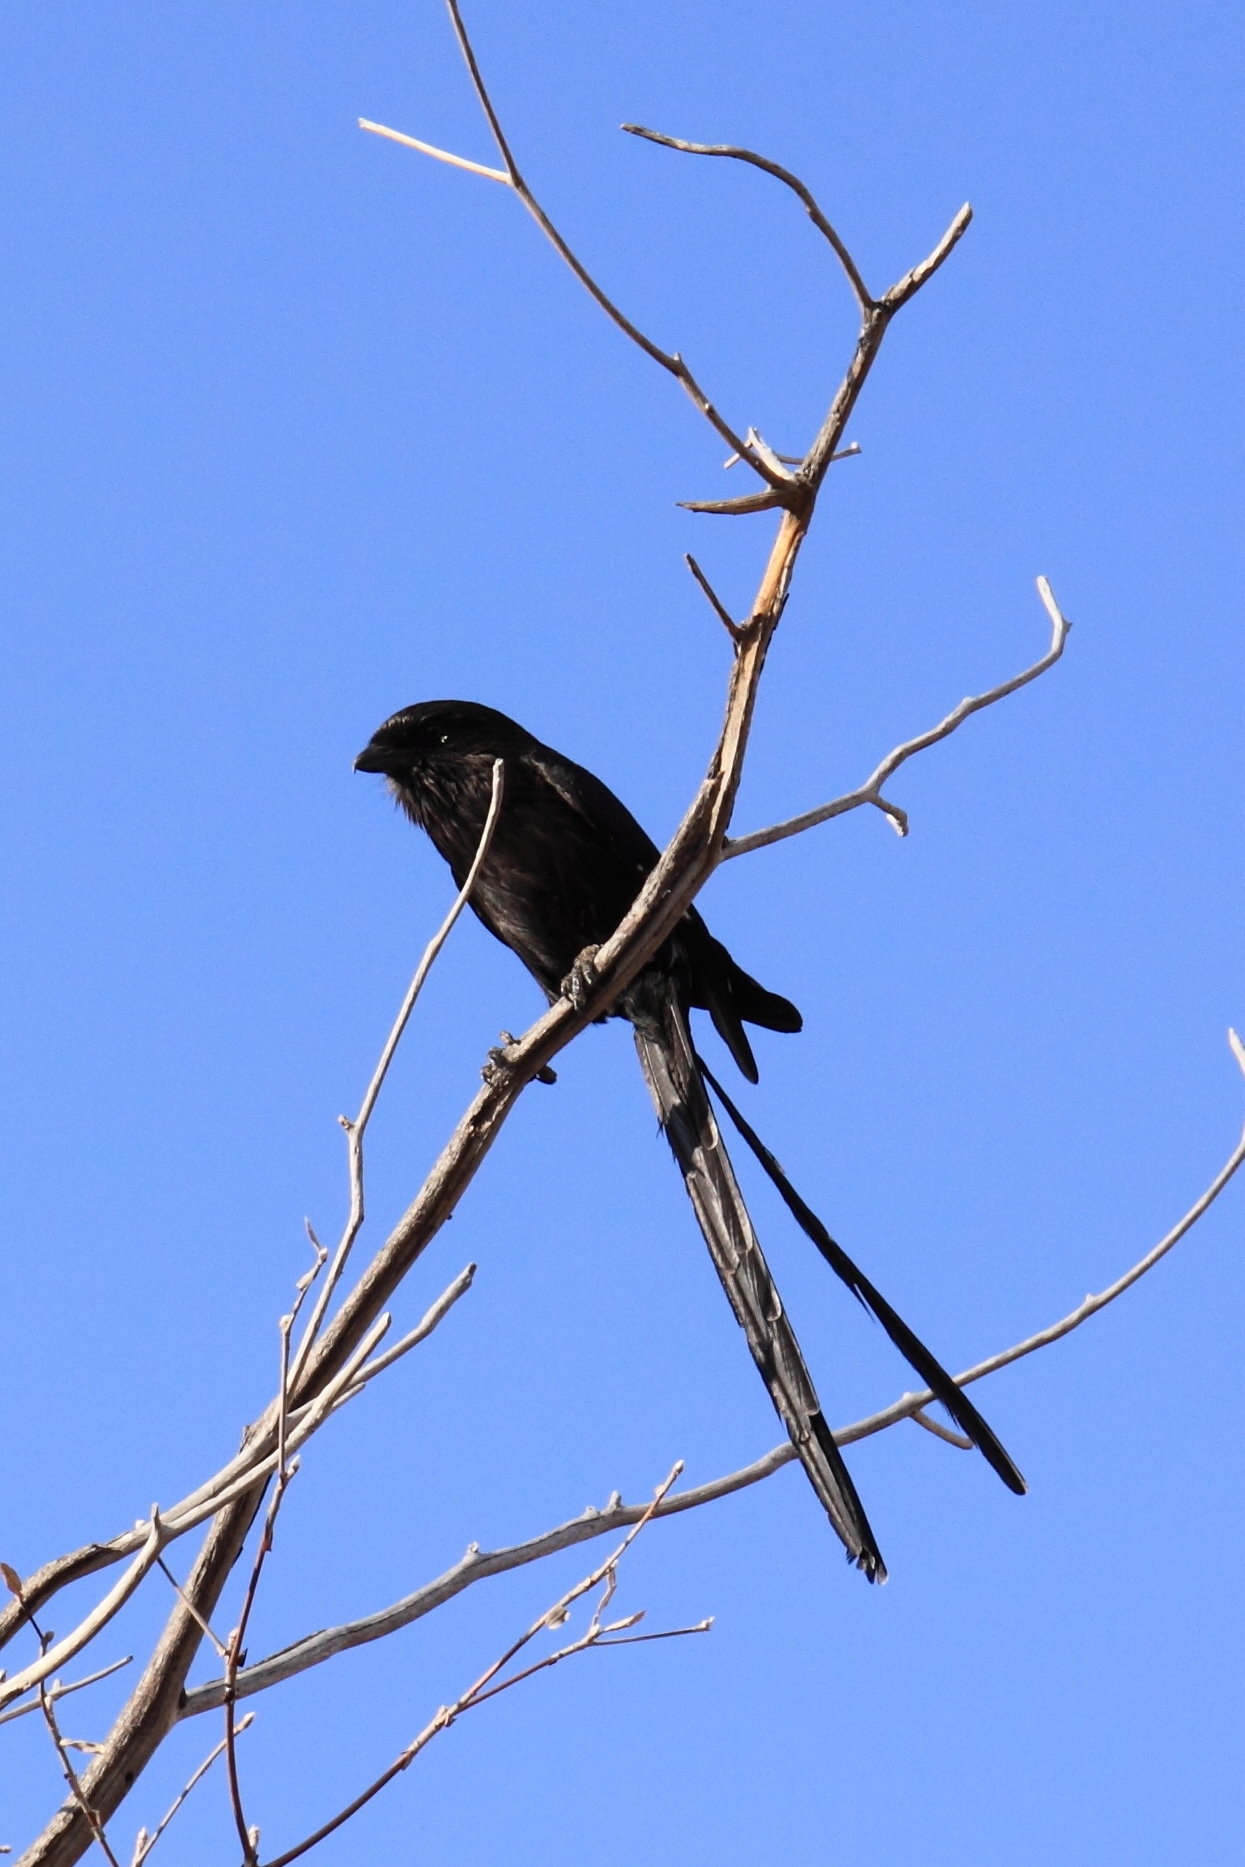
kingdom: Animalia
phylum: Chordata
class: Aves
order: Passeriformes
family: Laniidae
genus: Urolestes
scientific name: Urolestes melanoleucus
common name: Magpie shrike
